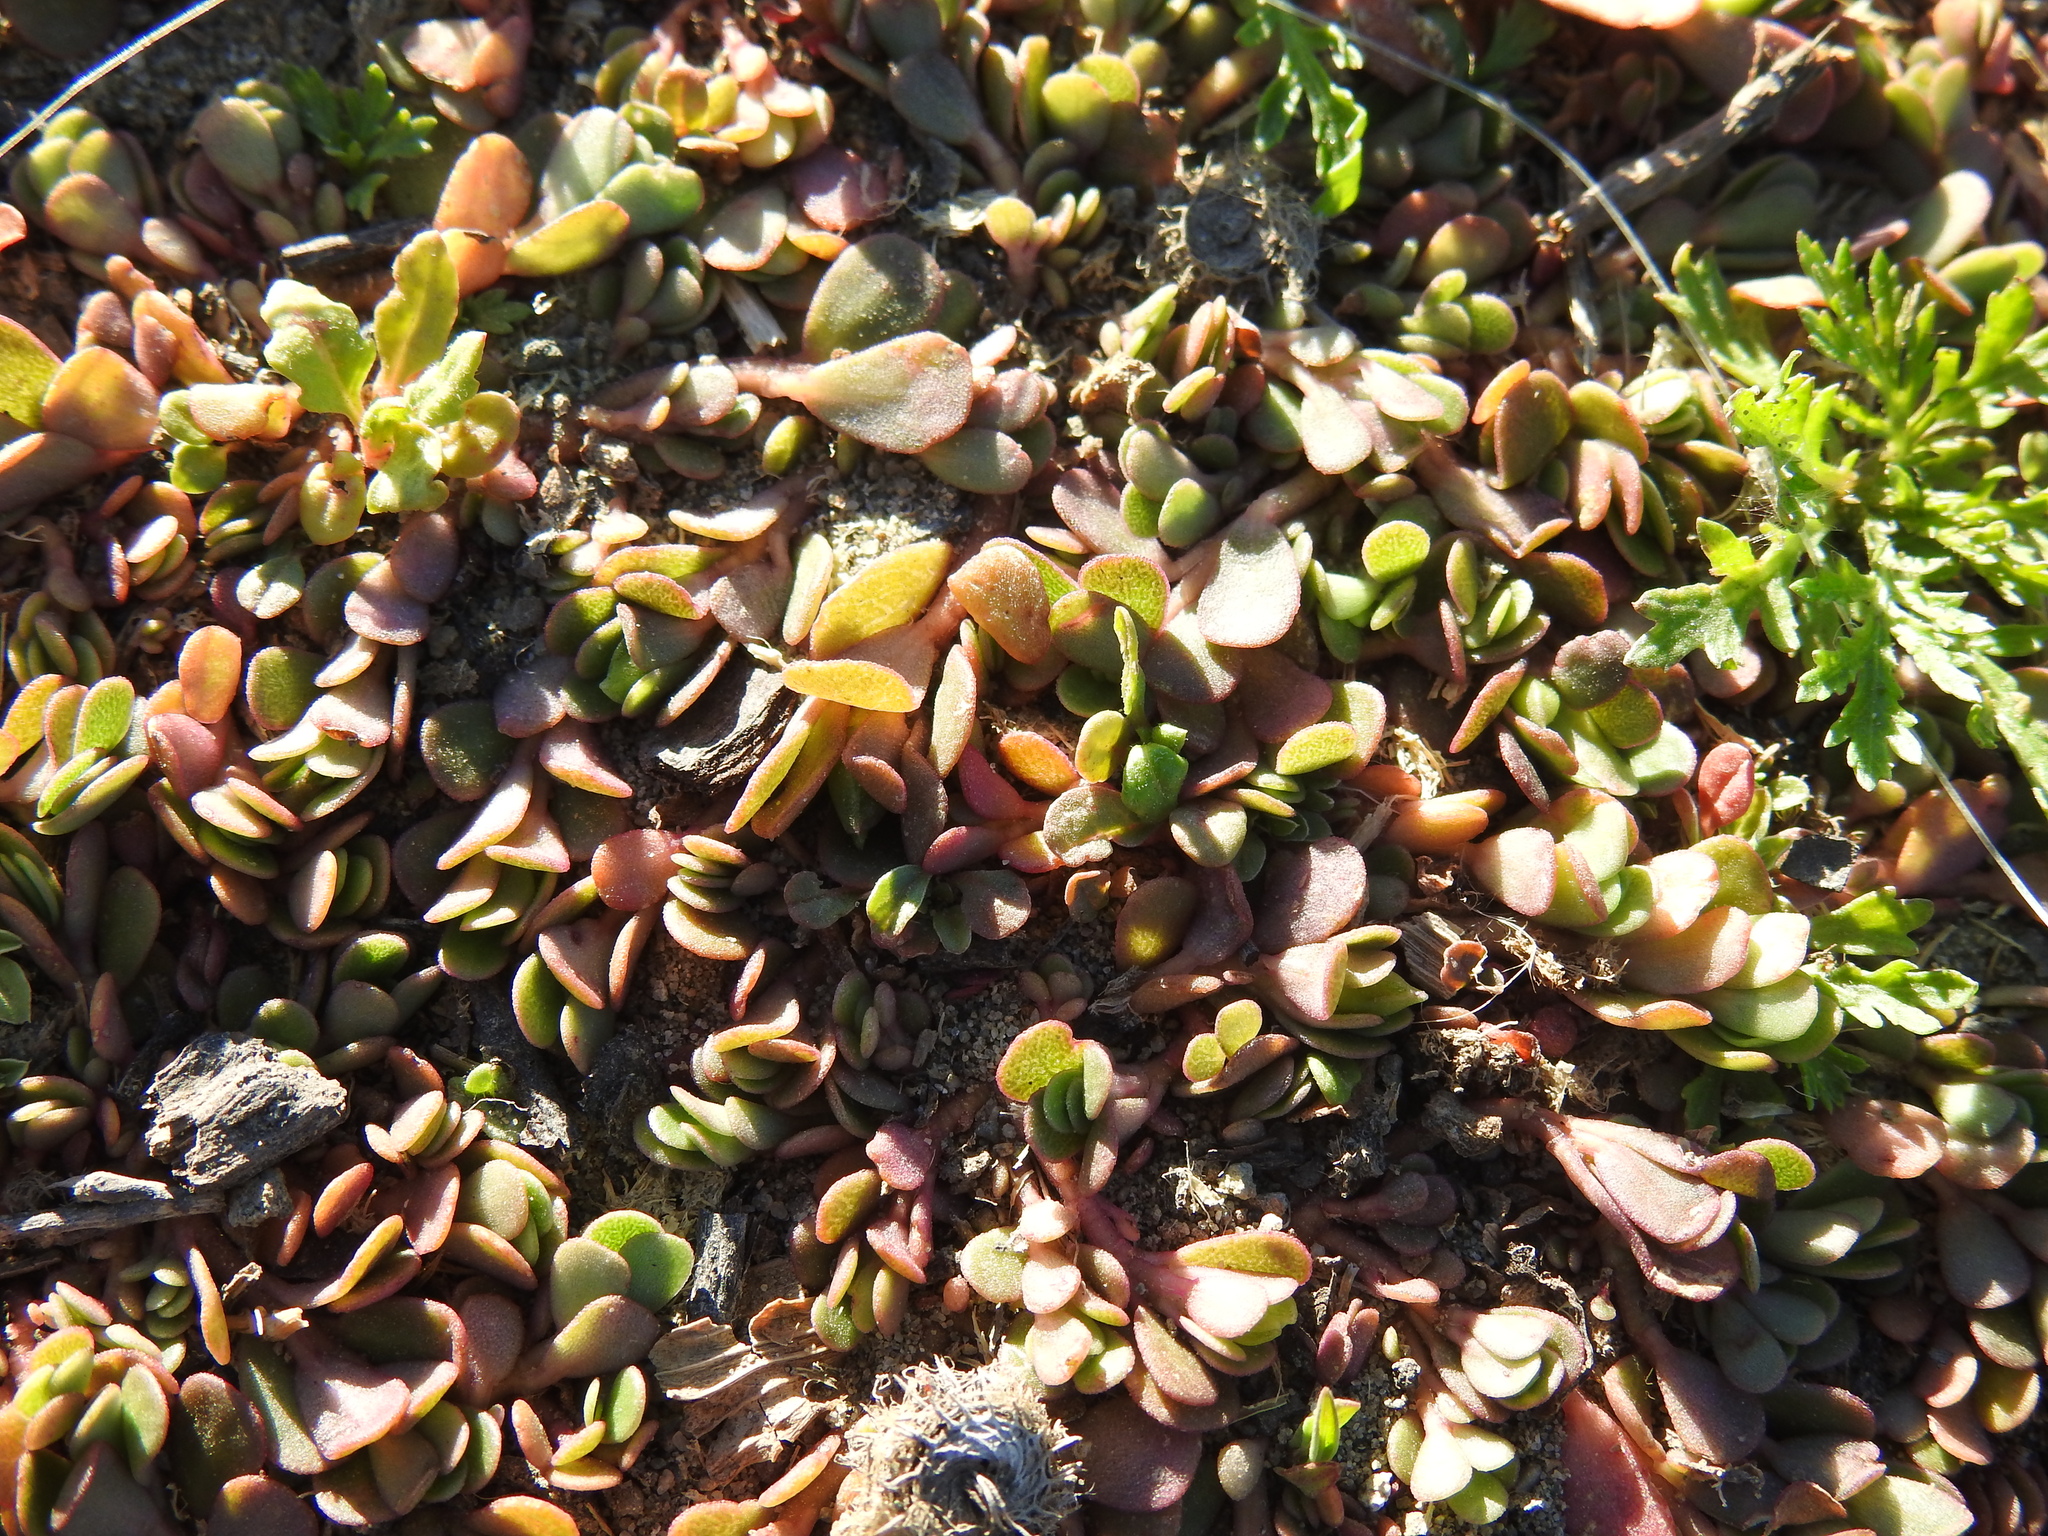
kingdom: Plantae
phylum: Tracheophyta
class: Magnoliopsida
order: Caryophyllales
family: Portulacaceae
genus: Portulaca
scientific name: Portulaca oleracea
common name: Common purslane
